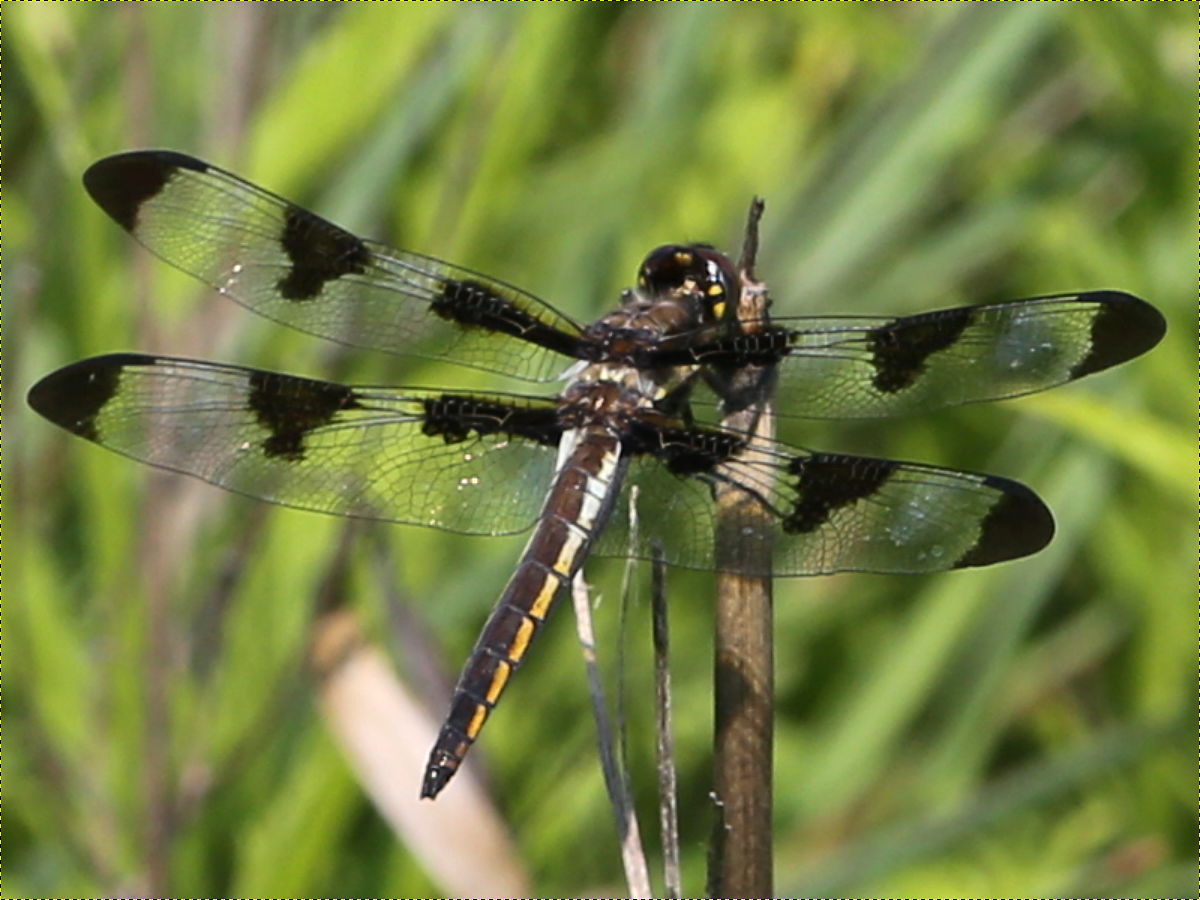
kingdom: Animalia
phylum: Arthropoda
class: Insecta
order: Odonata
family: Libellulidae
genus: Libellula
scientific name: Libellula pulchella
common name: Twelve-spotted skimmer
